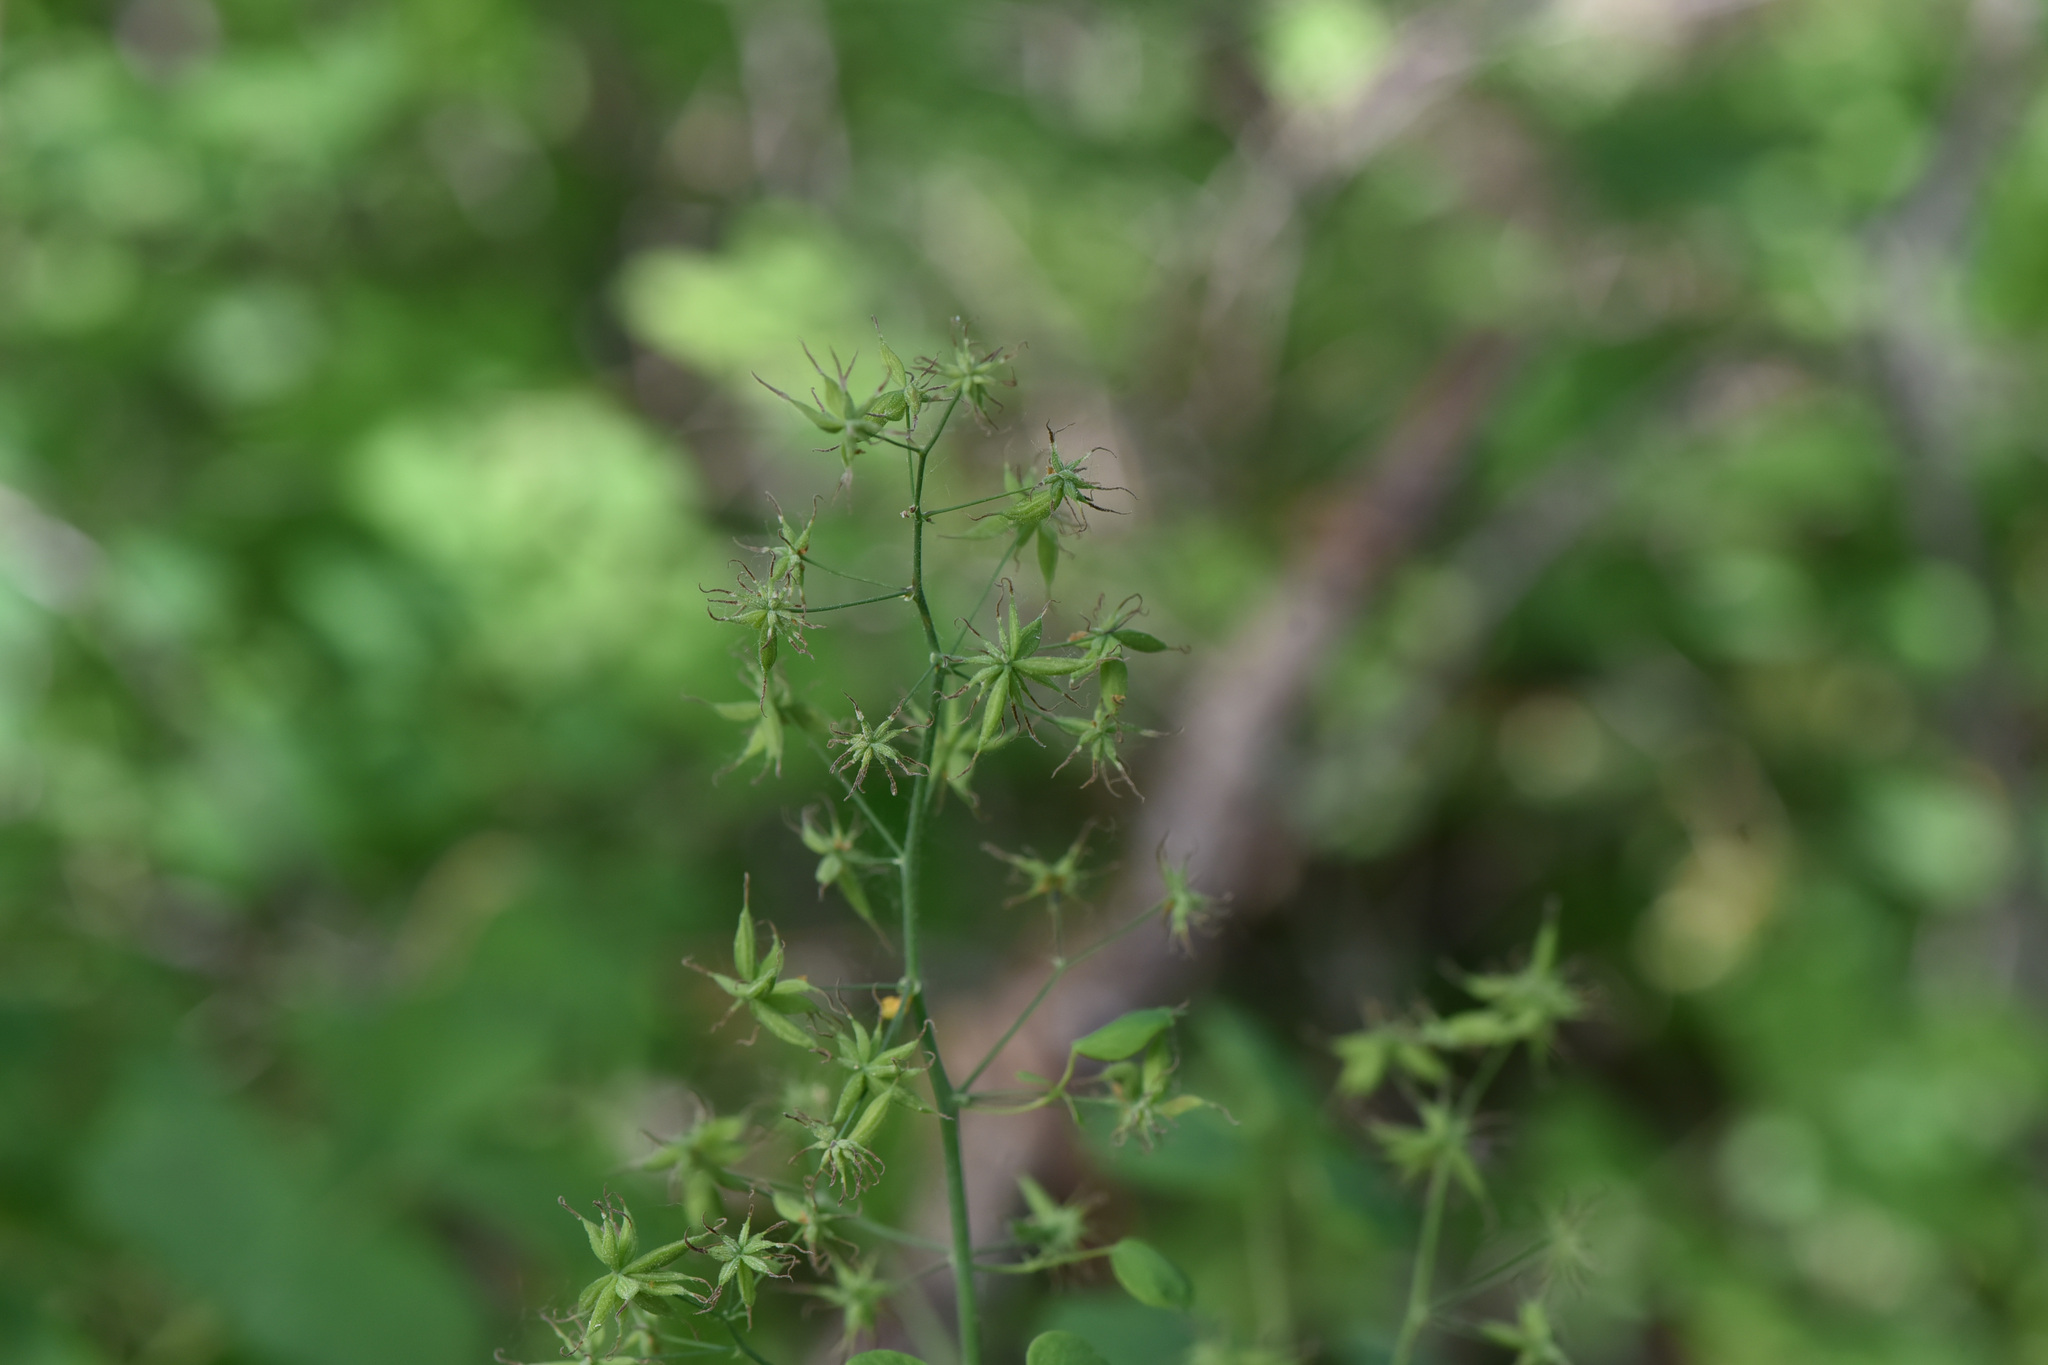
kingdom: Plantae
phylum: Tracheophyta
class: Magnoliopsida
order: Ranunculales
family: Ranunculaceae
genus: Thalictrum
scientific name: Thalictrum occidentale
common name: Western meadow-rue
